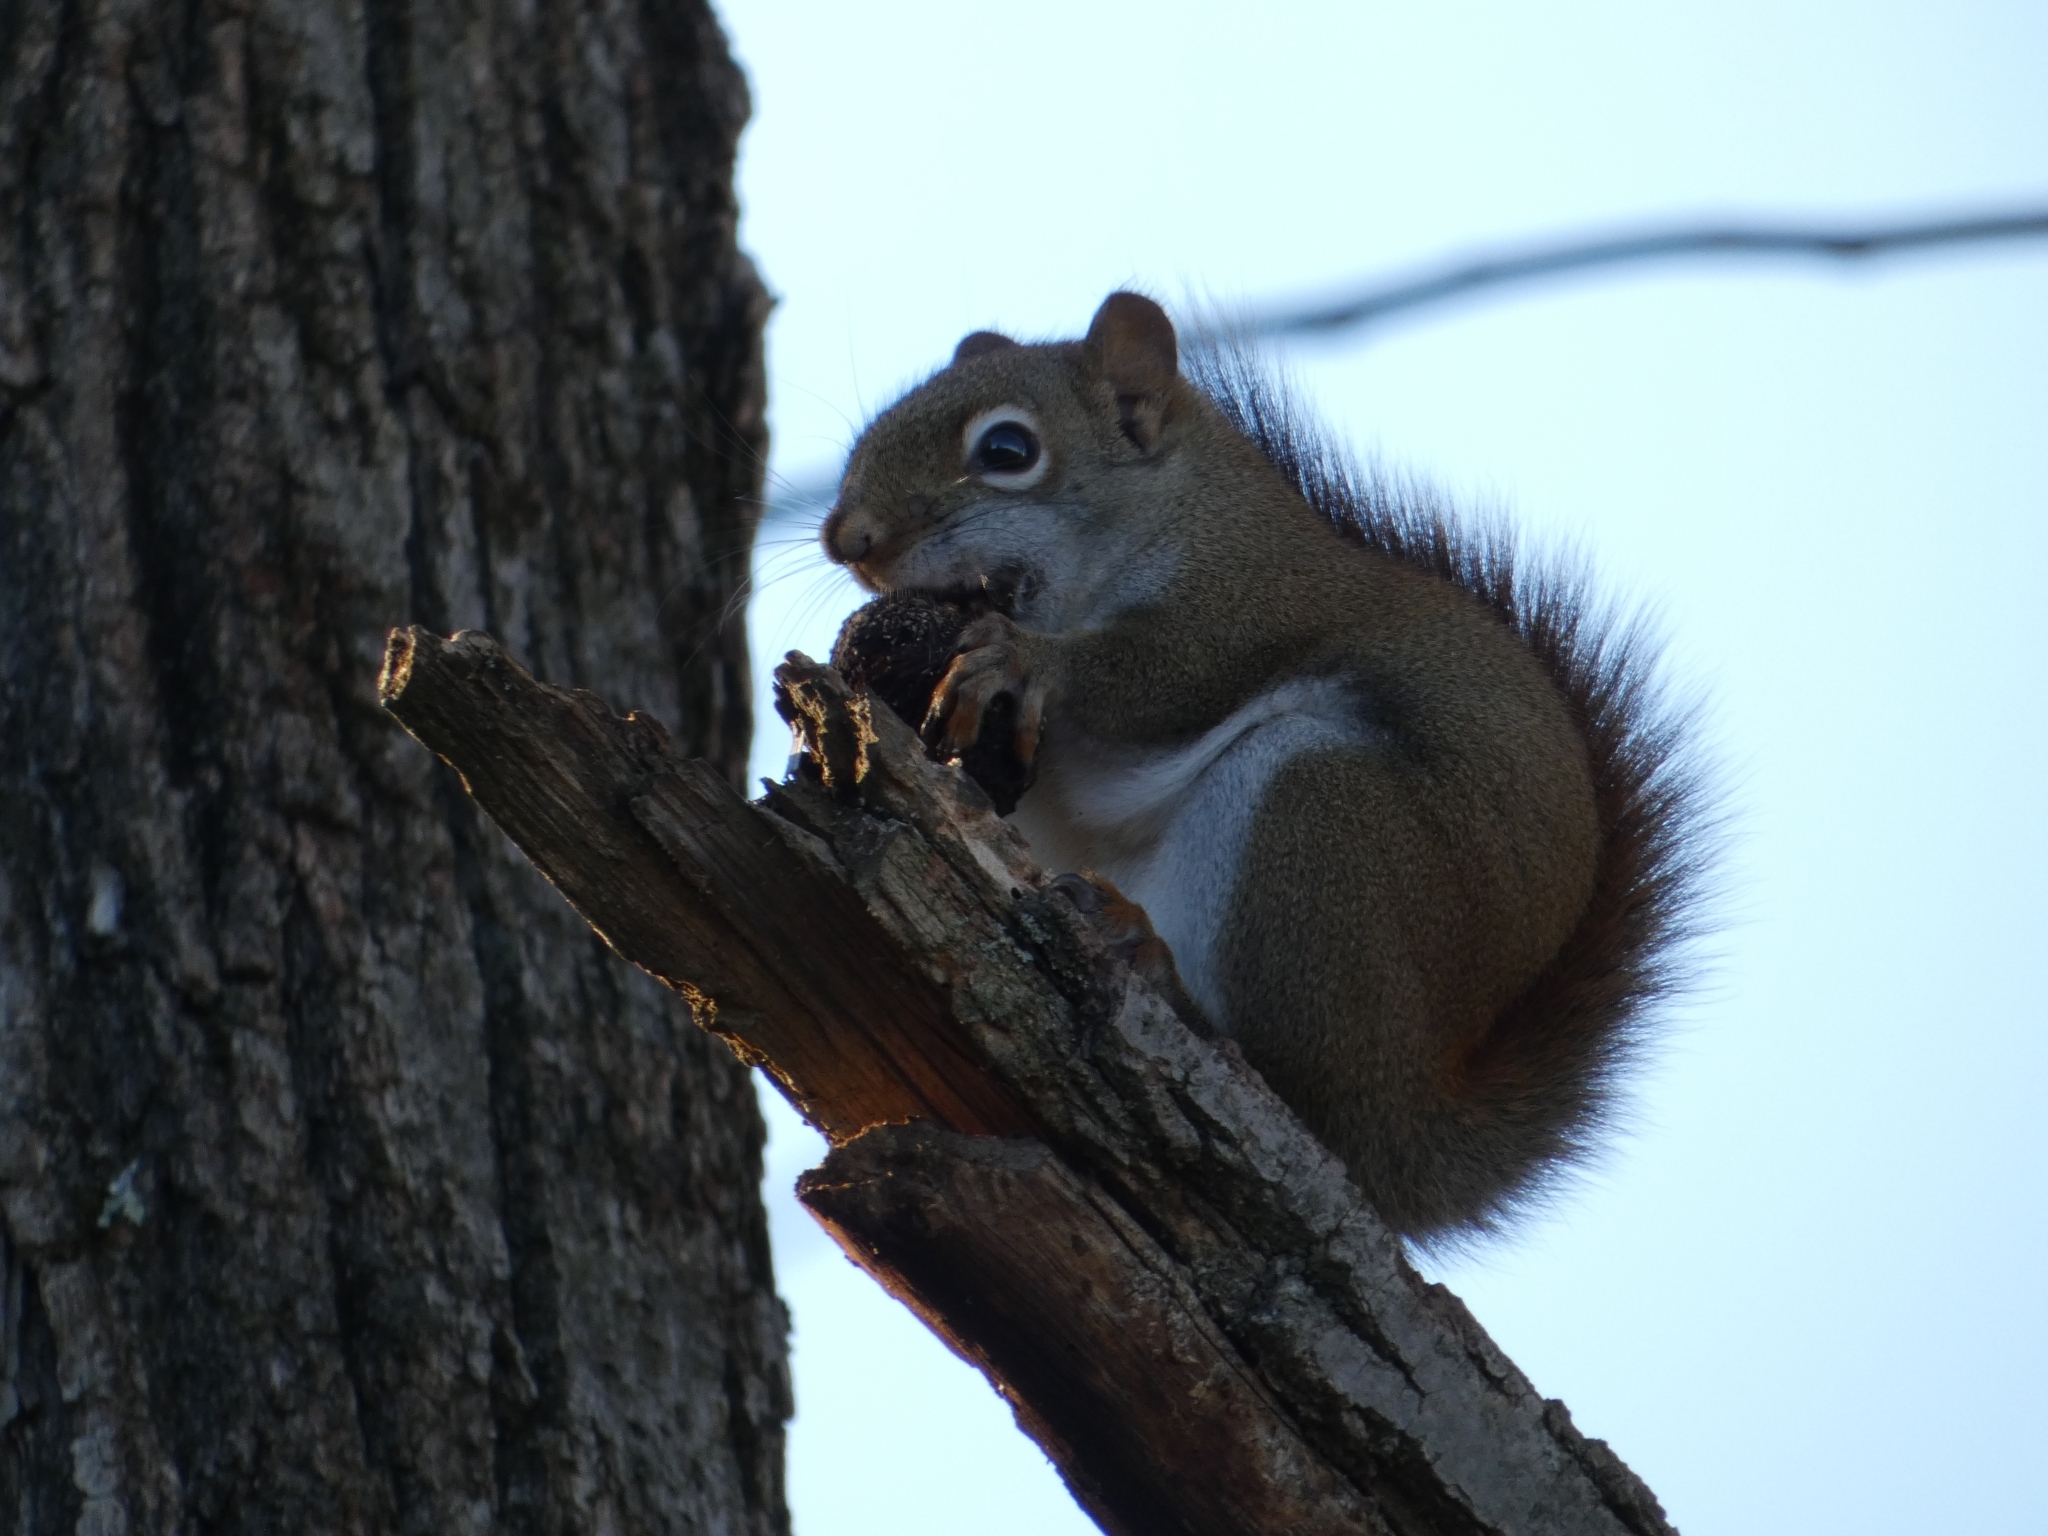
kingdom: Animalia
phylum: Chordata
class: Mammalia
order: Rodentia
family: Sciuridae
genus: Tamiasciurus
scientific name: Tamiasciurus hudsonicus
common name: Red squirrel
